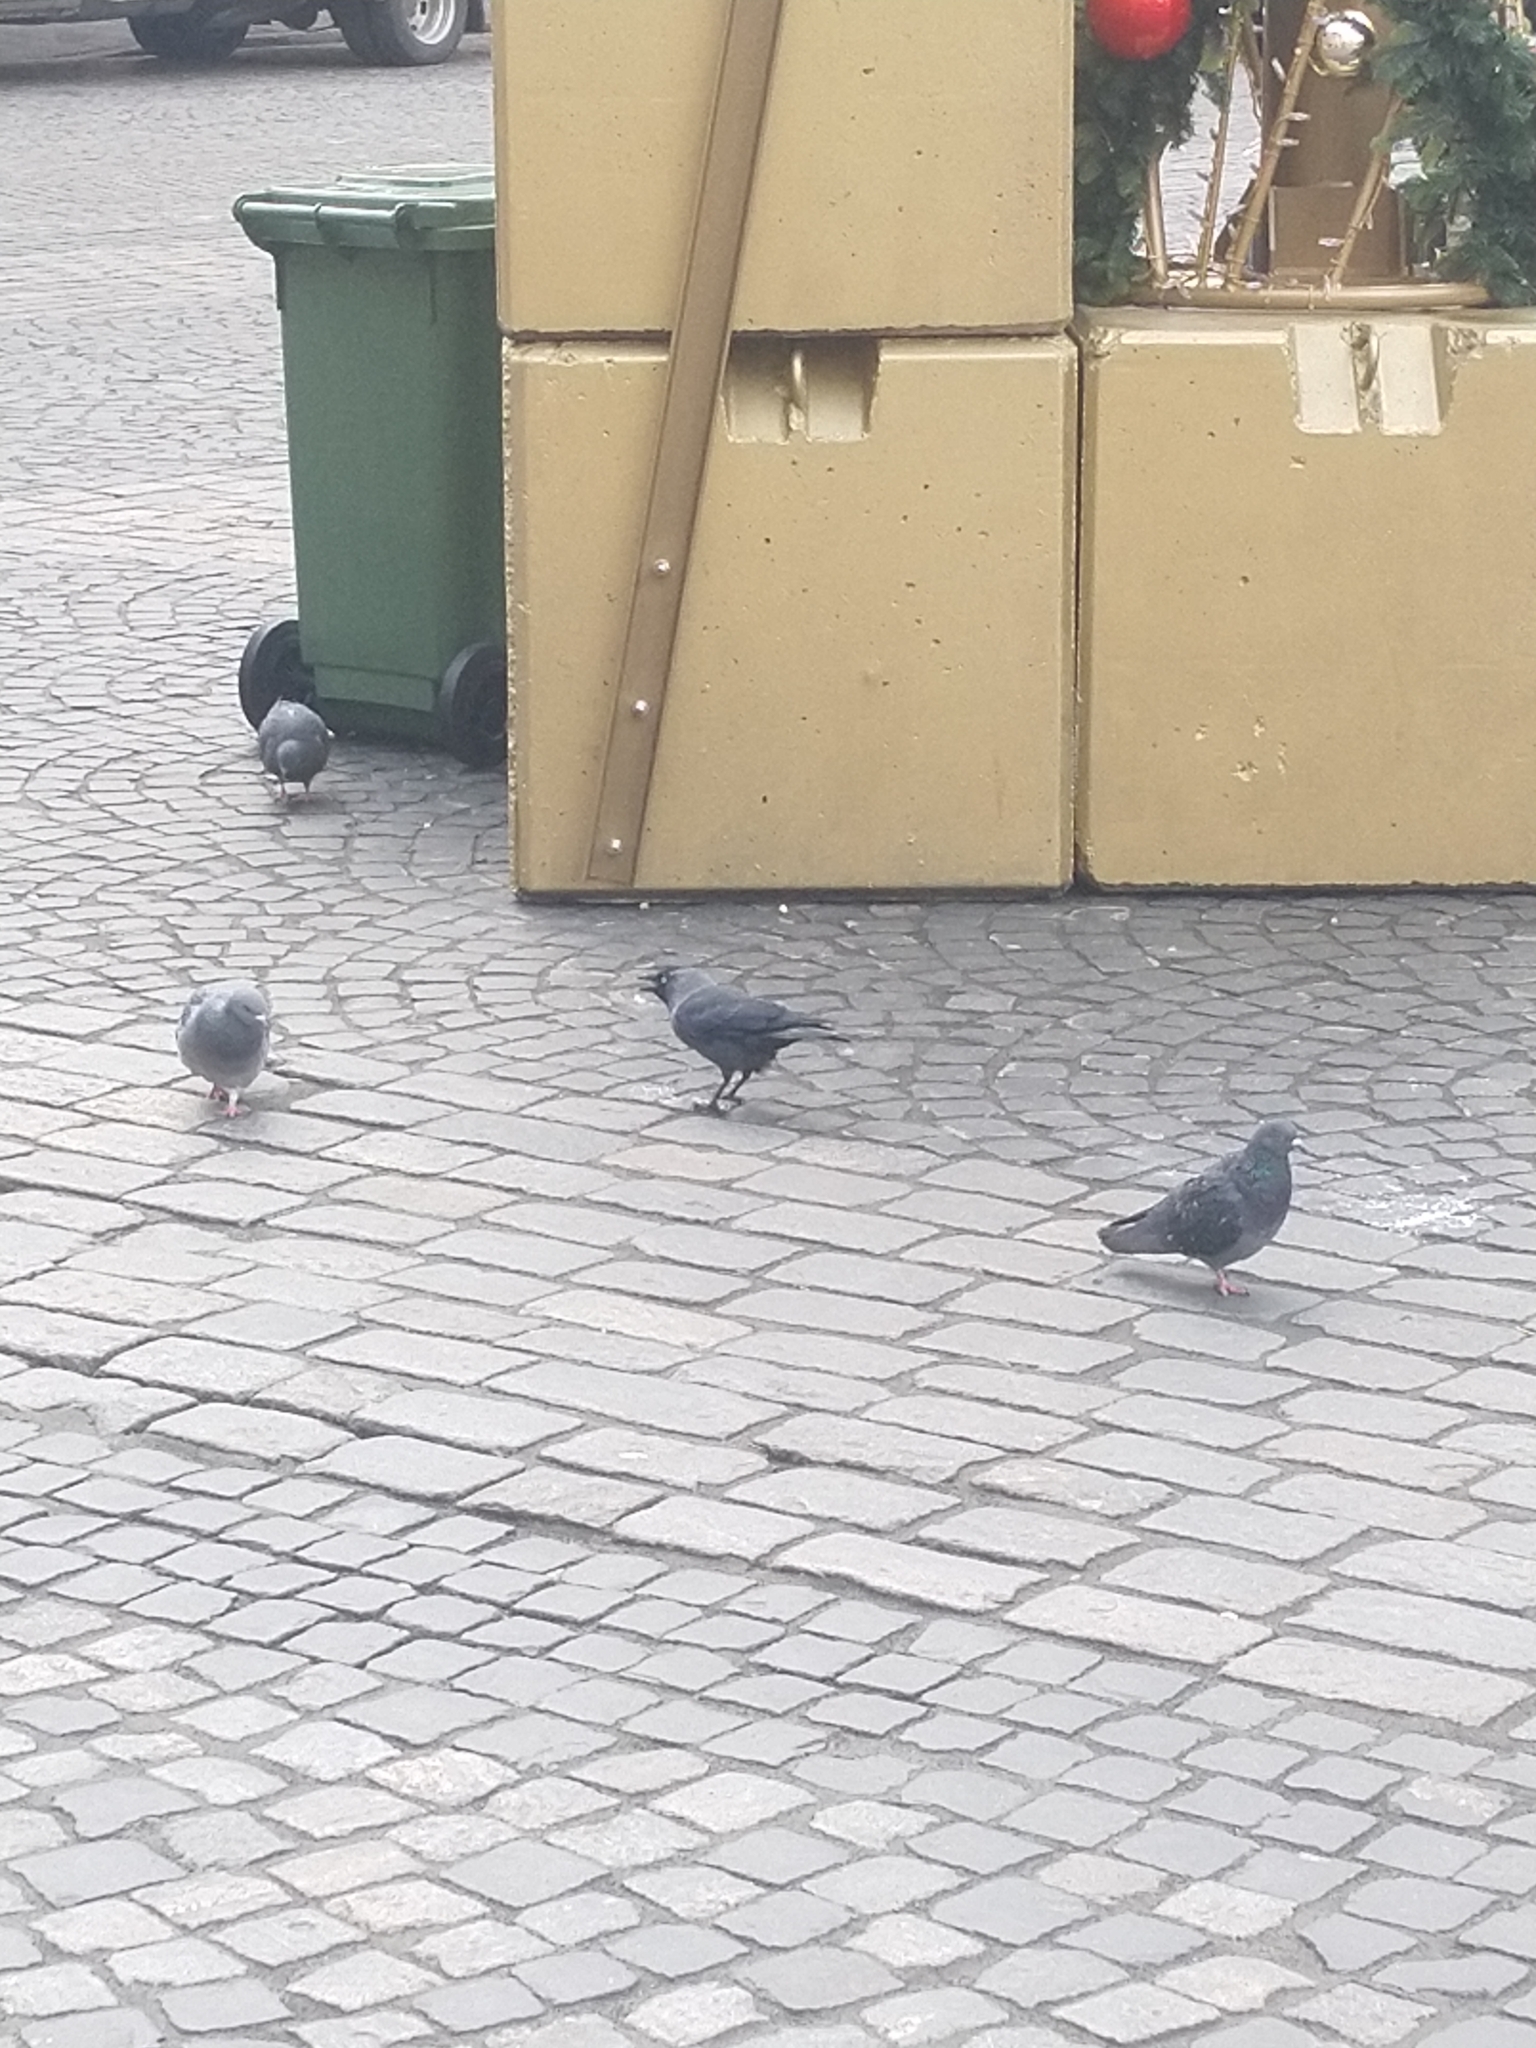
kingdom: Animalia
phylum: Chordata
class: Aves
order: Passeriformes
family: Corvidae
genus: Coloeus
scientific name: Coloeus monedula
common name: Western jackdaw
